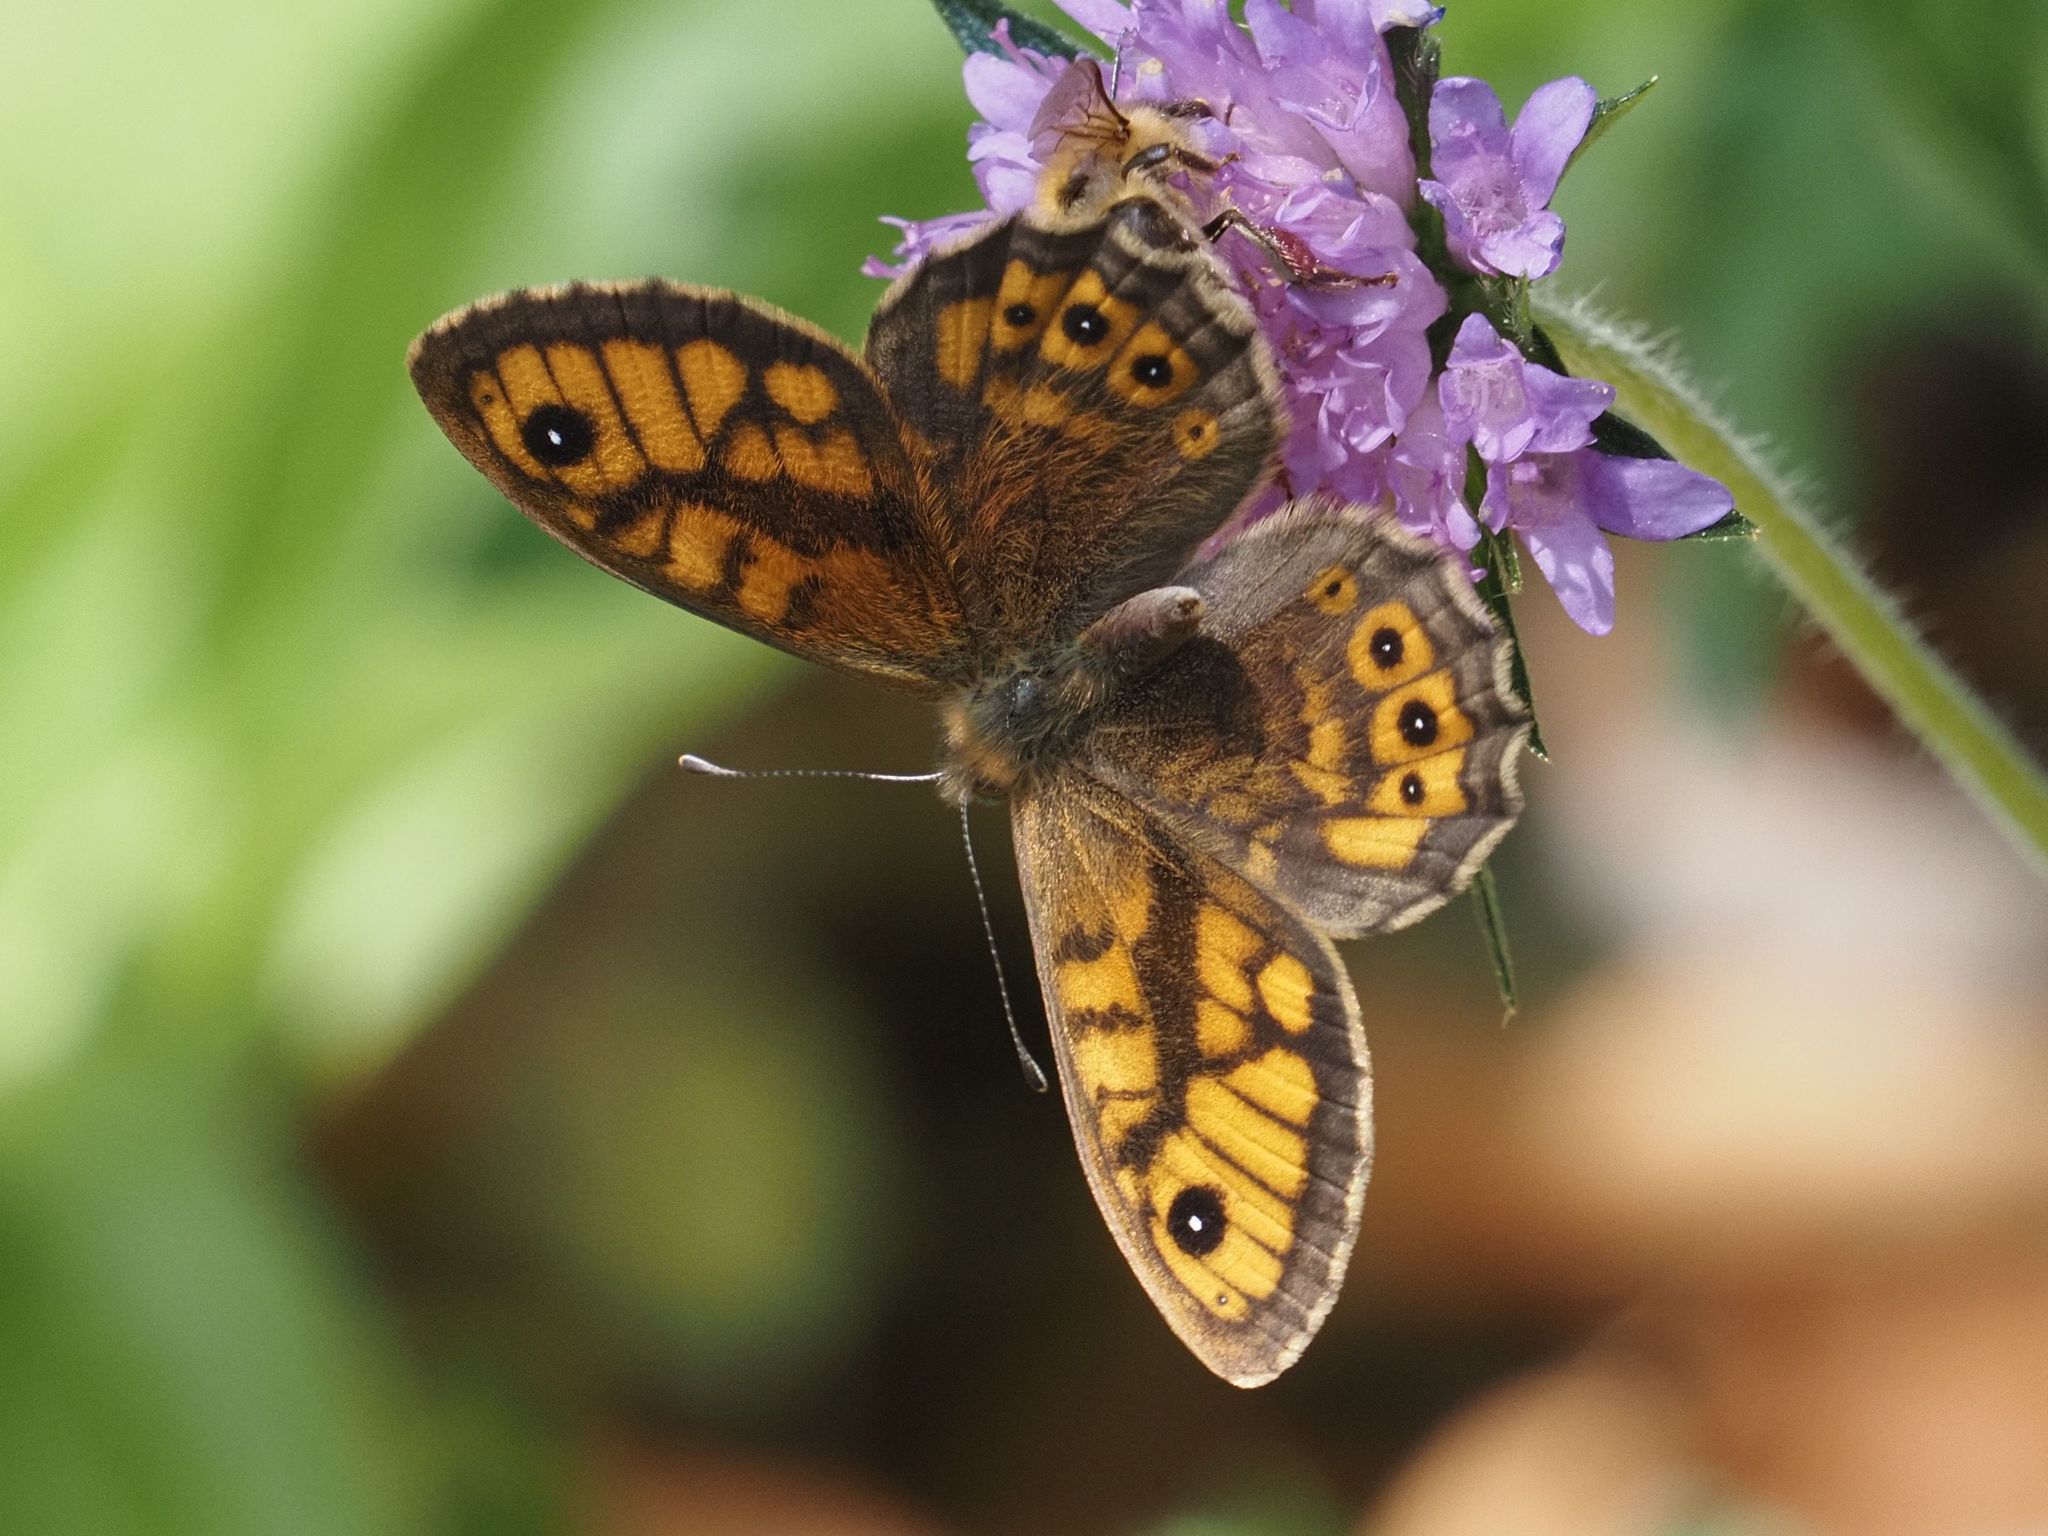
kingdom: Animalia
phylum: Arthropoda
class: Insecta
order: Lepidoptera
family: Nymphalidae
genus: Pararge
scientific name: Pararge Lasiommata megera
